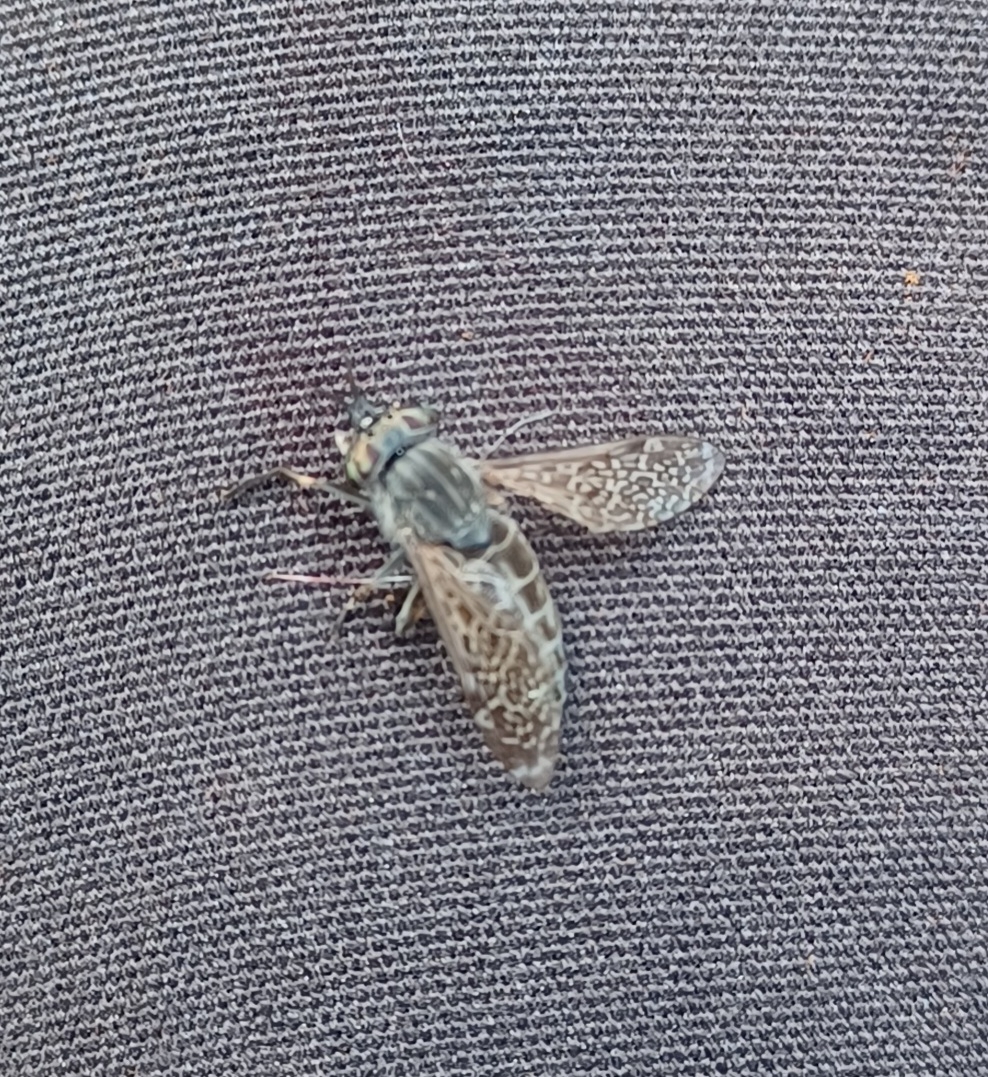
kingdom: Animalia
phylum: Arthropoda
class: Insecta
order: Diptera
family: Tabanidae
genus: Haematopota
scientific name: Haematopota pluvialis
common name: Common horse fly
